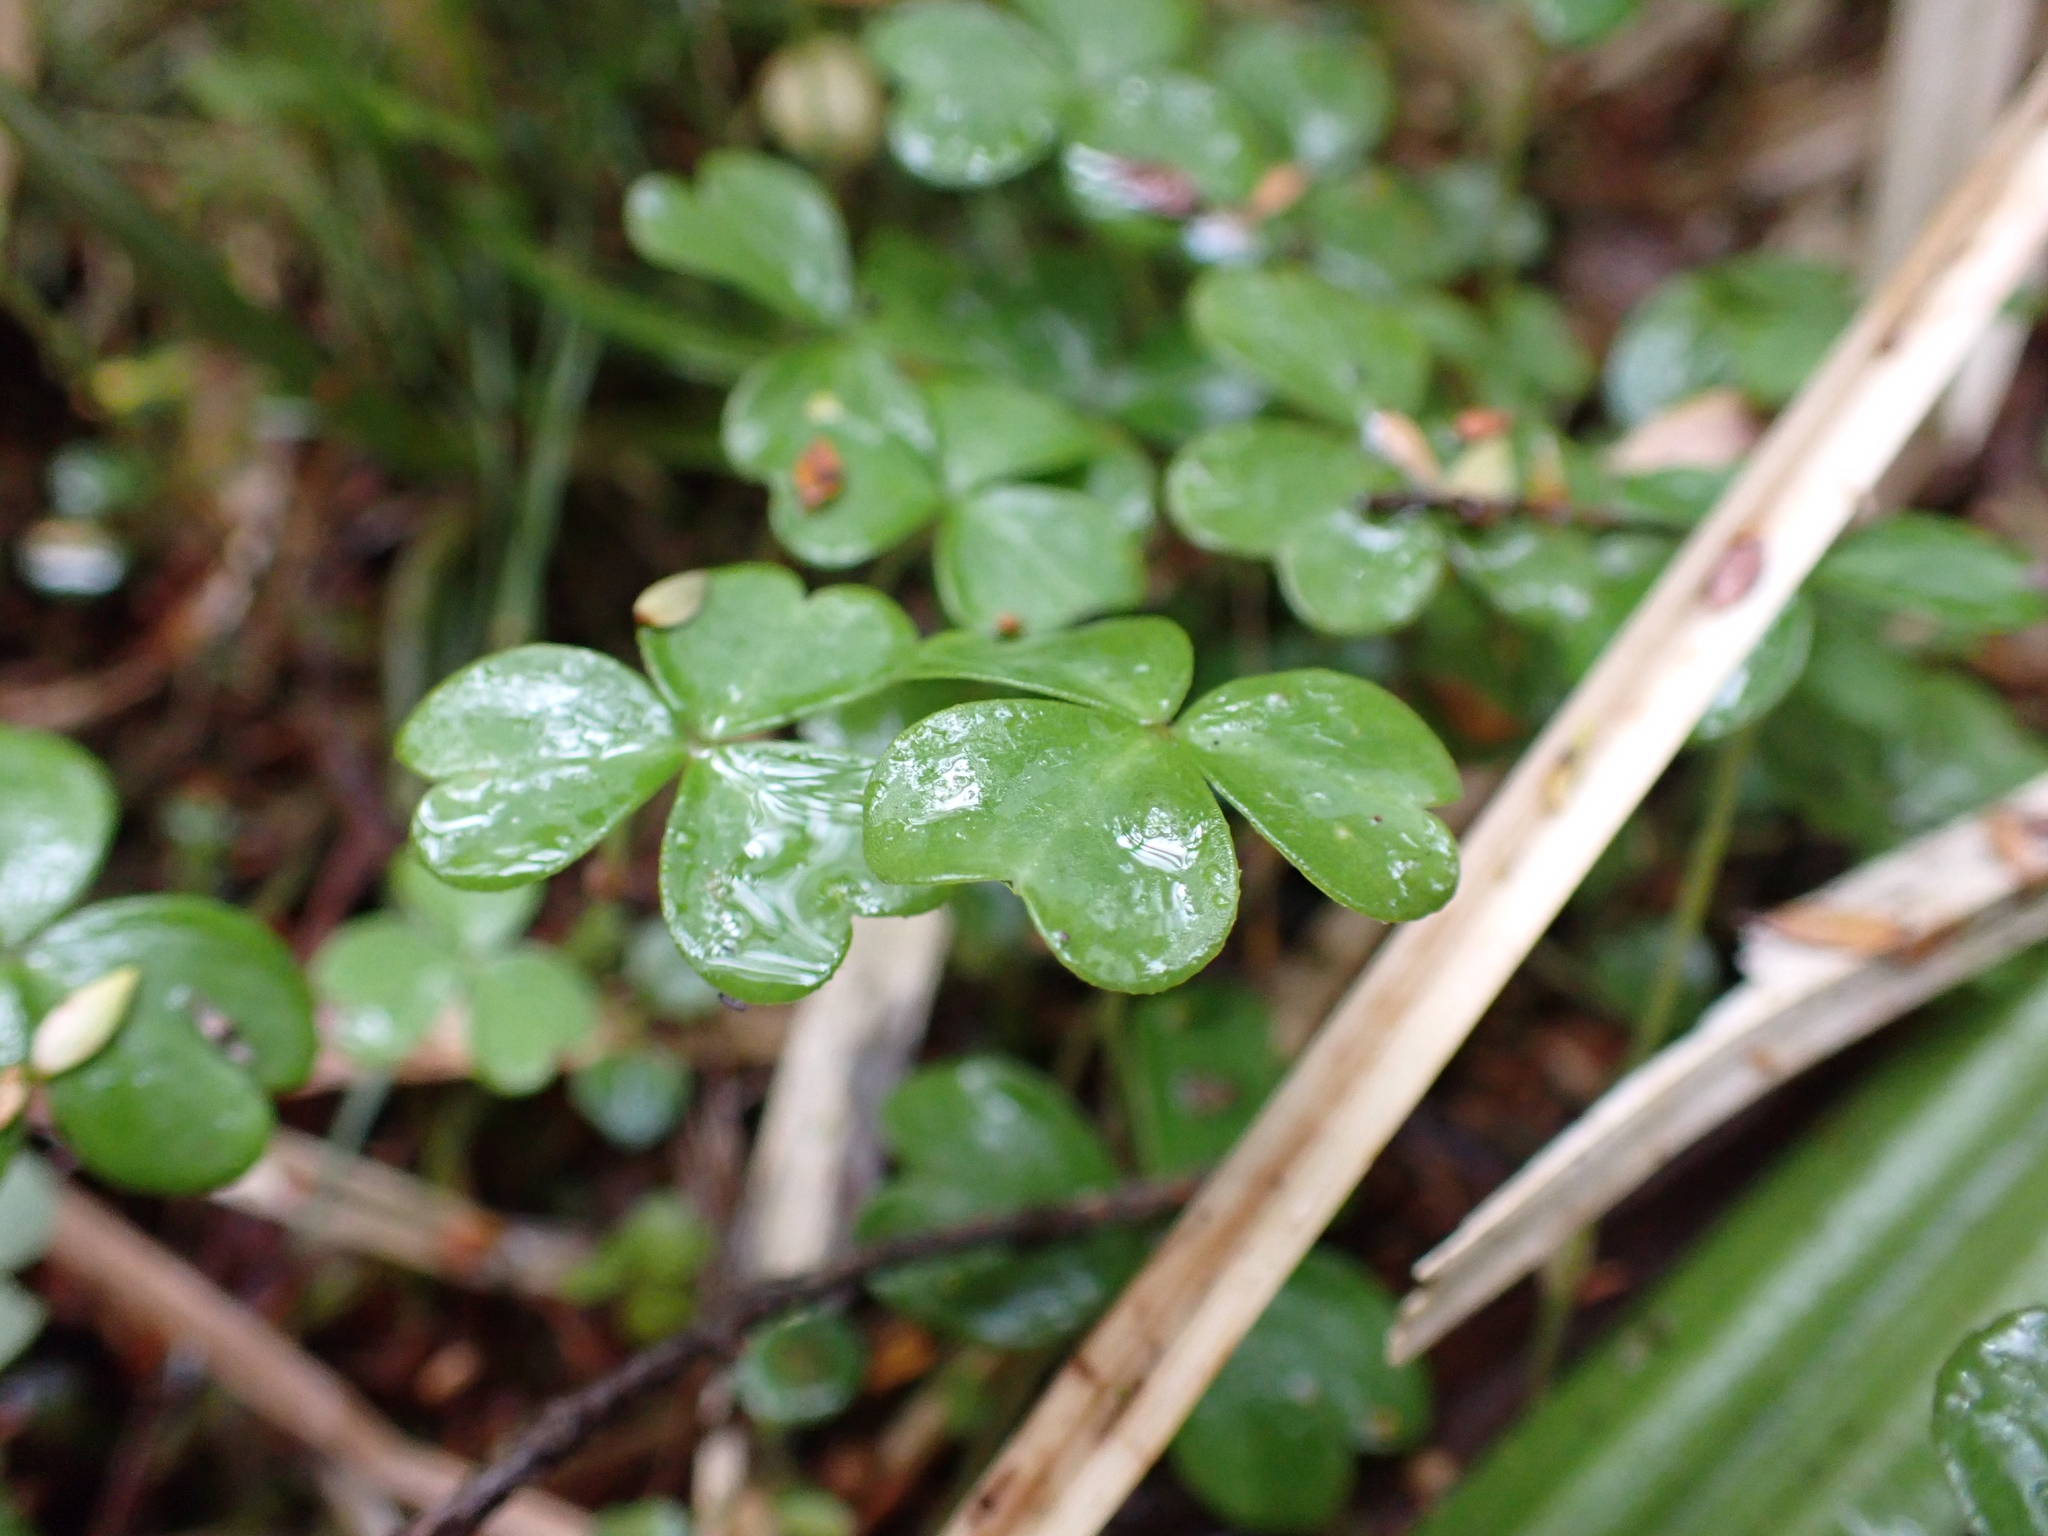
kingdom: Plantae
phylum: Tracheophyta
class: Magnoliopsida
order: Oxalidales
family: Oxalidaceae
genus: Oxalis
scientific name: Oxalis magellanica
